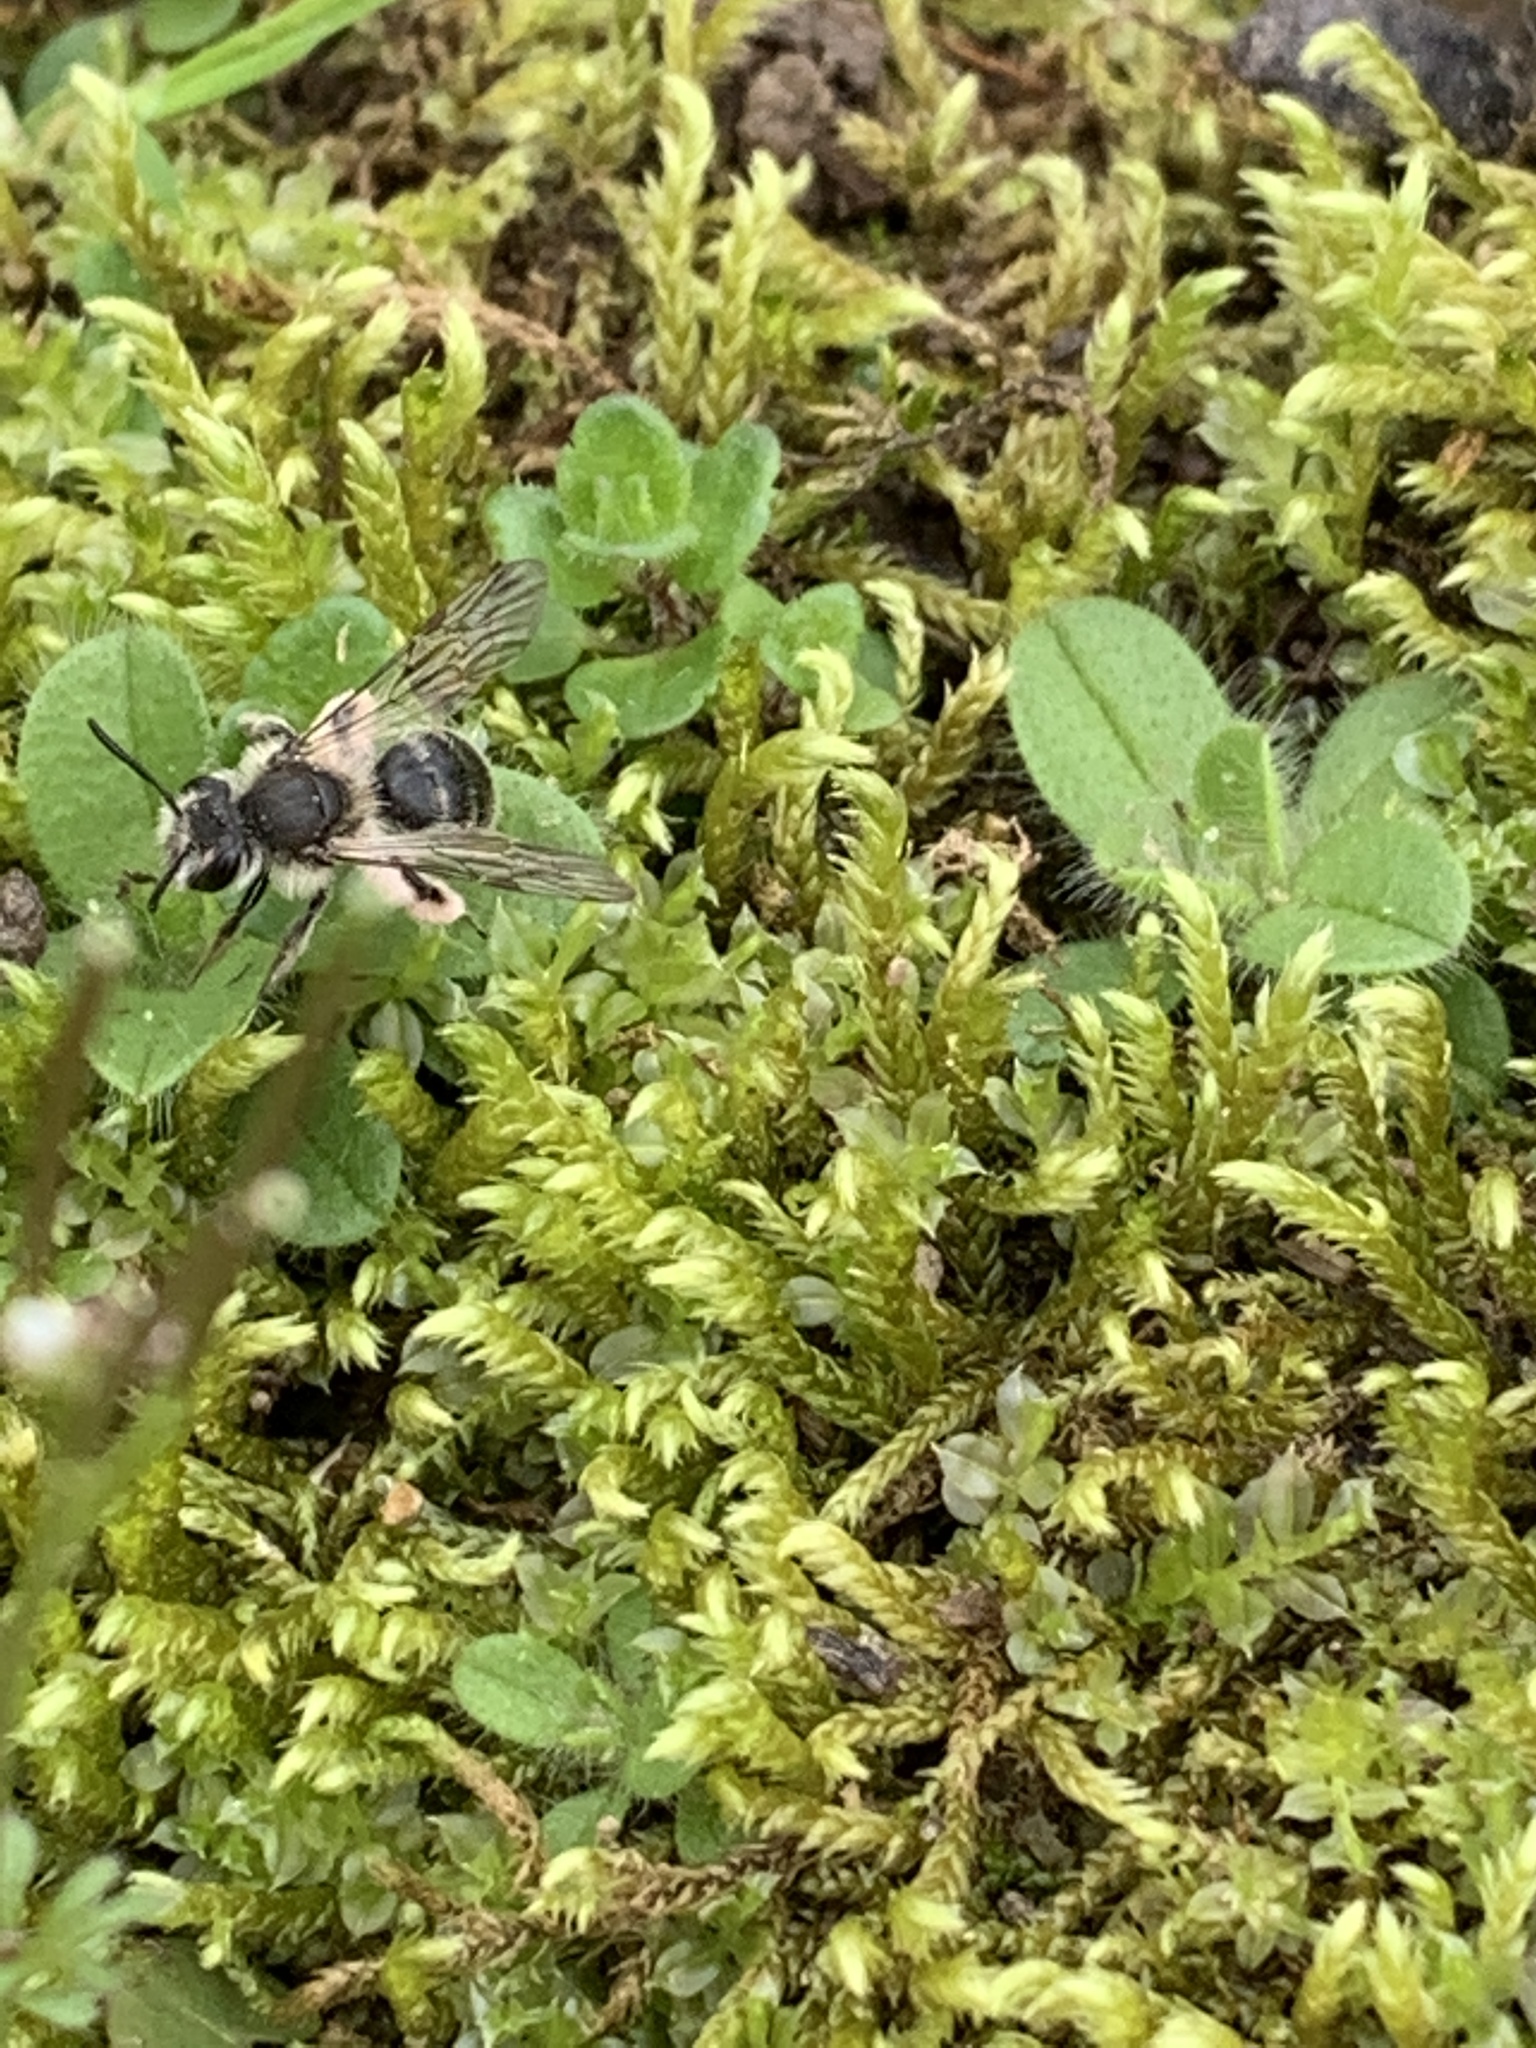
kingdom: Animalia
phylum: Arthropoda
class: Insecta
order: Hymenoptera
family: Andrenidae
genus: Andrena
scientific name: Andrena erigeniae
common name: Spring beauty miner
